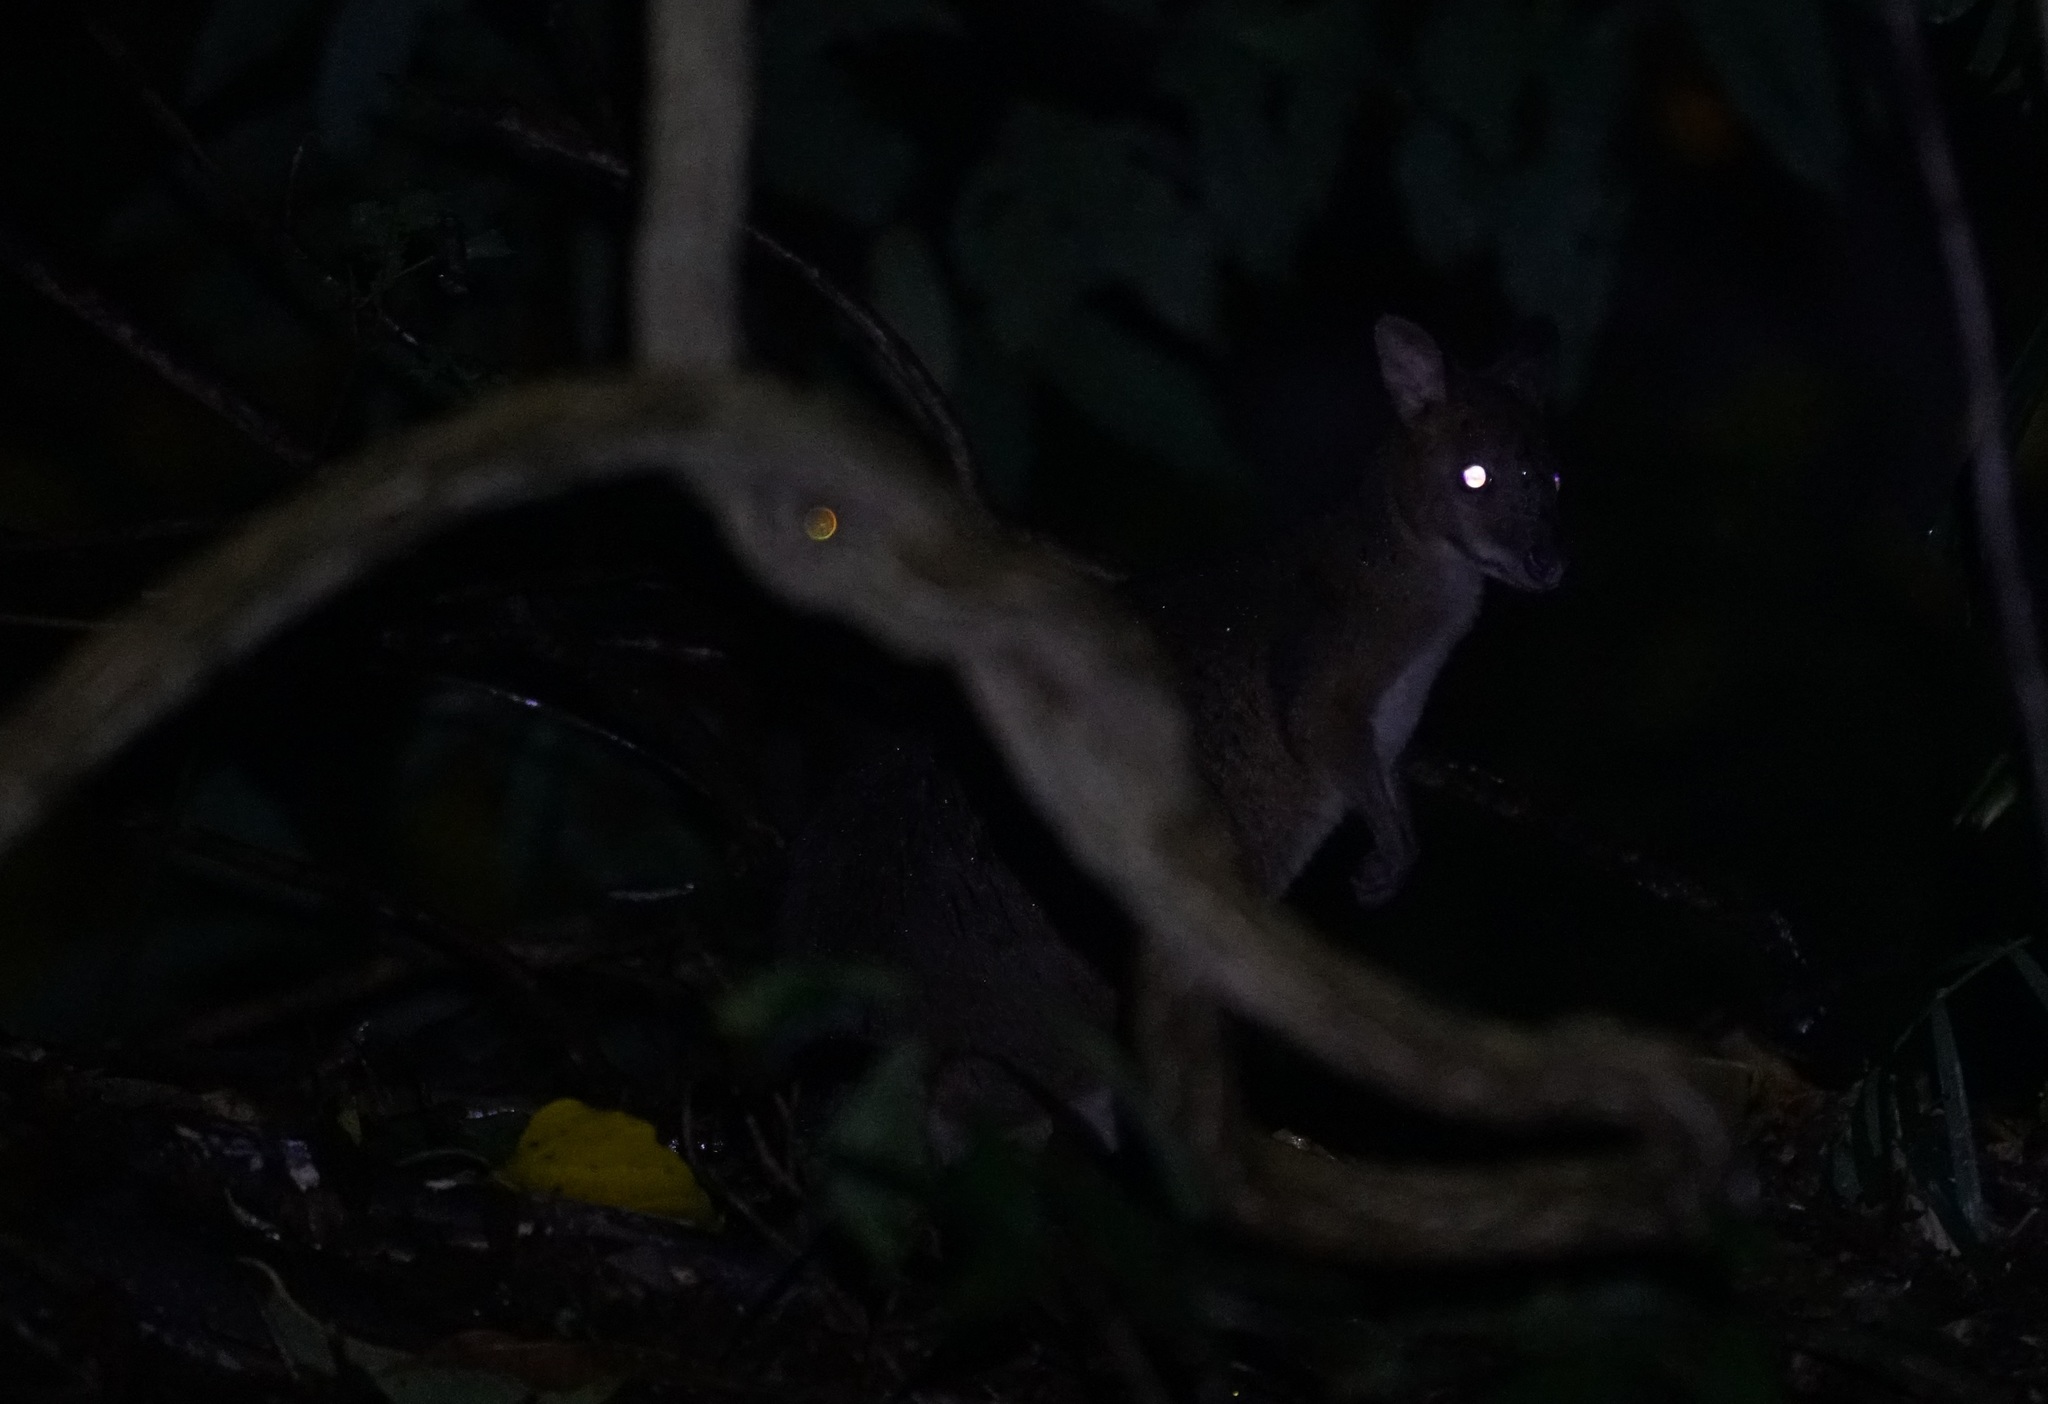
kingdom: Animalia
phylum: Chordata
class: Mammalia
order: Diprotodontia
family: Macropodidae
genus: Thylogale
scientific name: Thylogale stigmatica
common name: Red-legged pademelon
